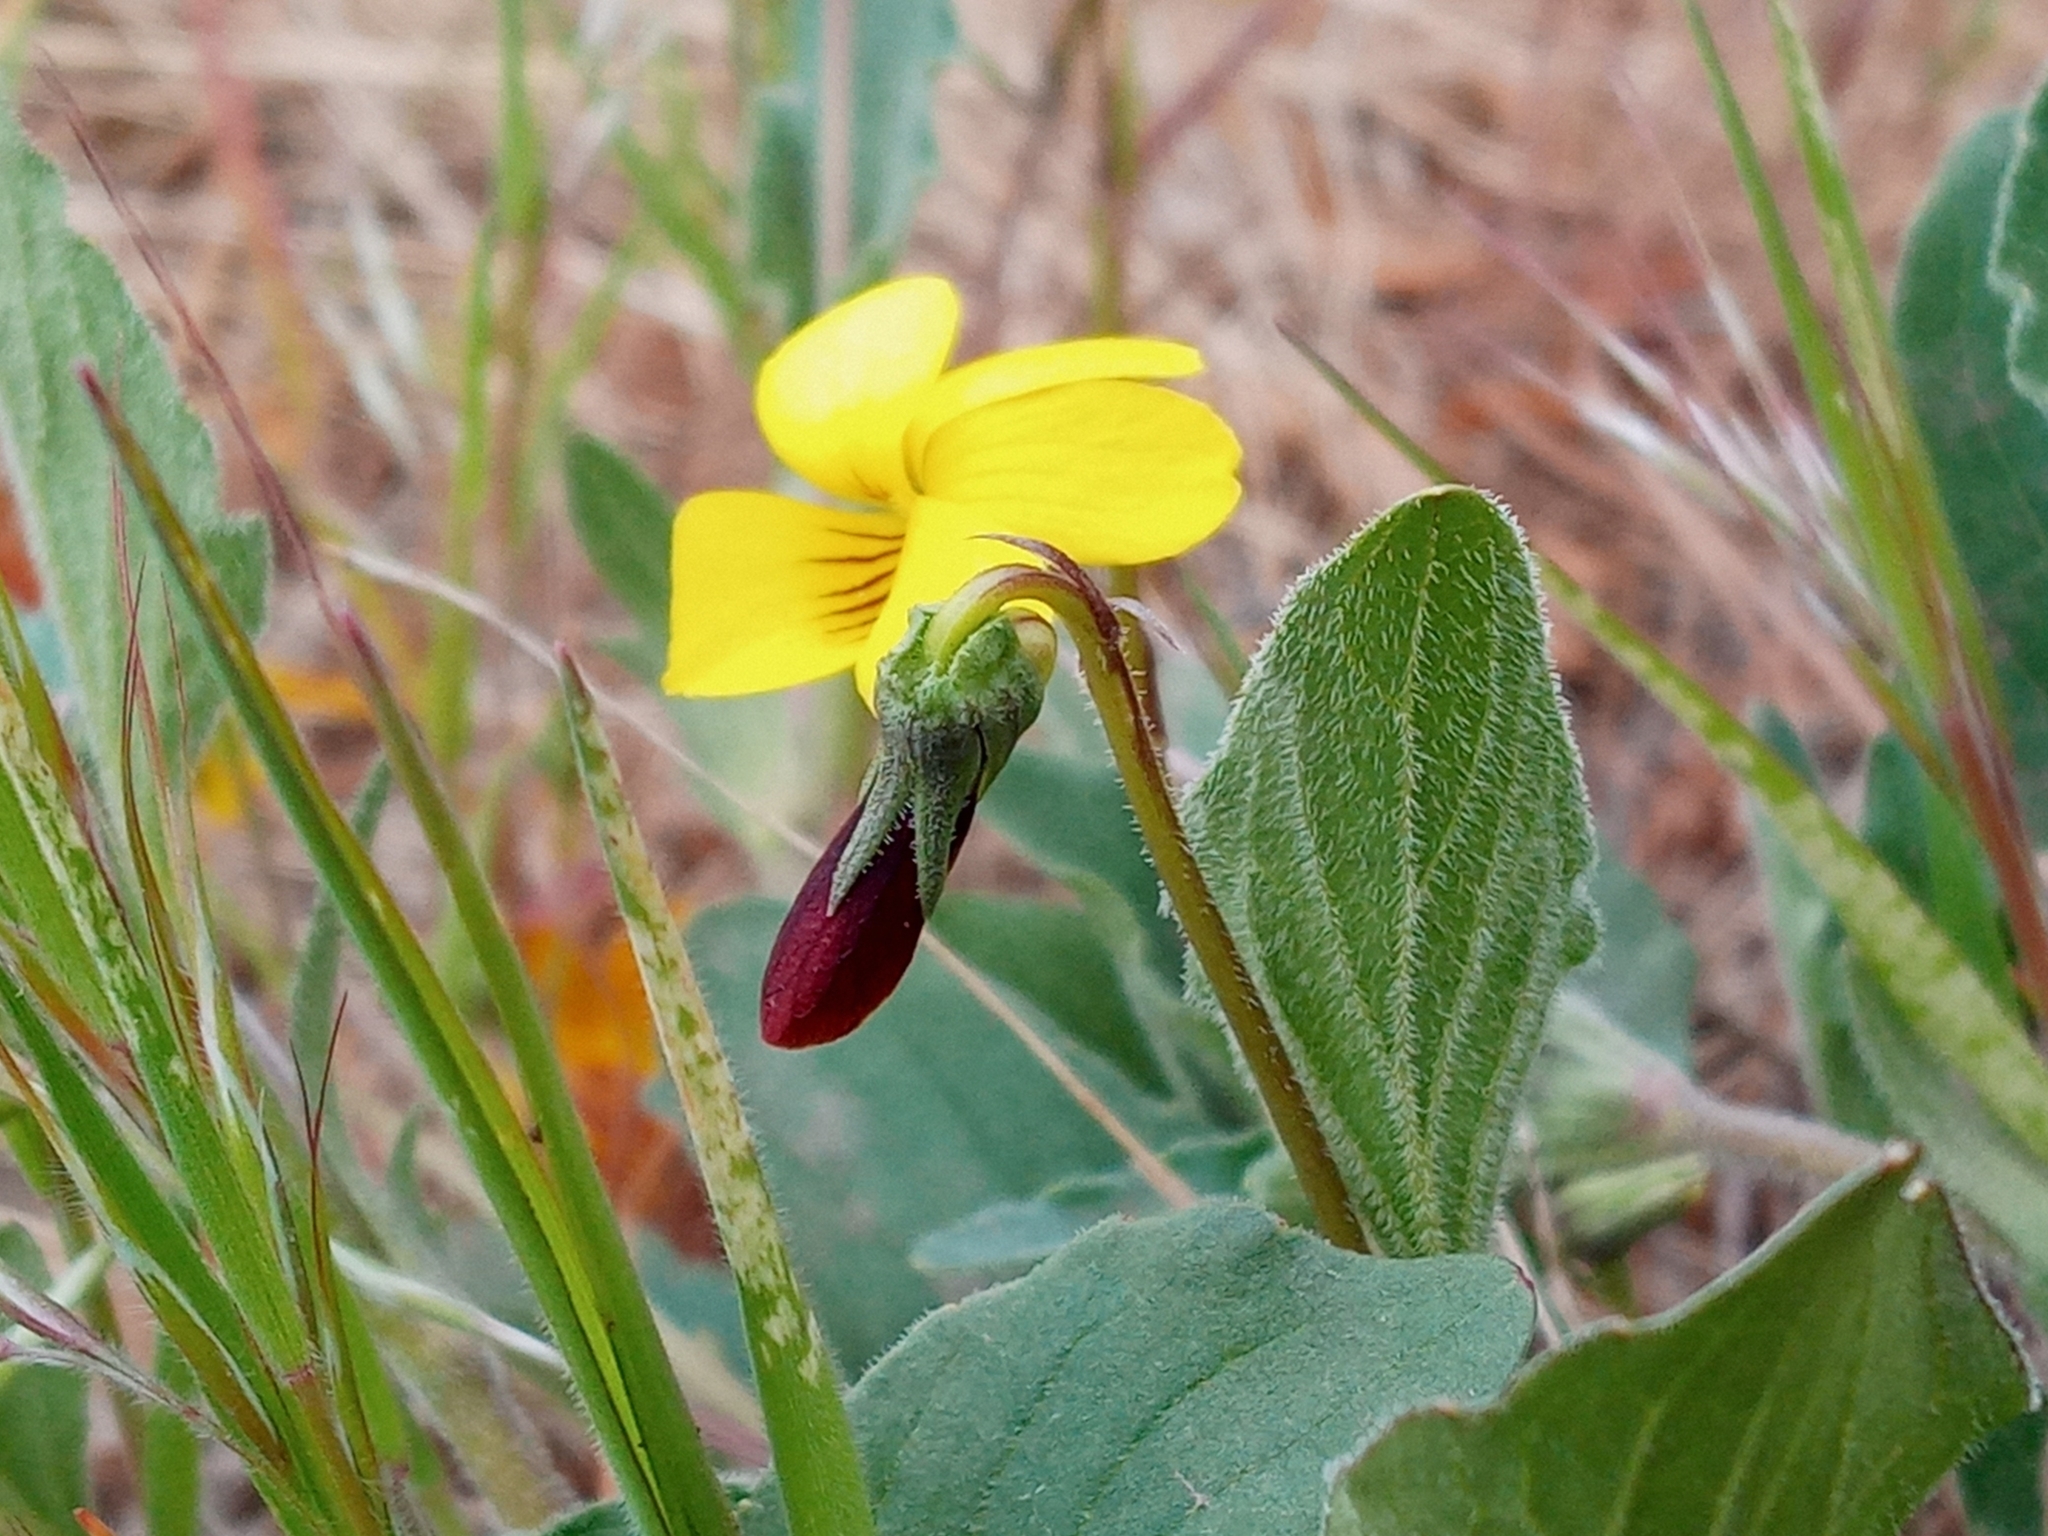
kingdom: Plantae
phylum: Tracheophyta
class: Magnoliopsida
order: Malpighiales
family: Violaceae
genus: Viola
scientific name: Viola quercetorum
